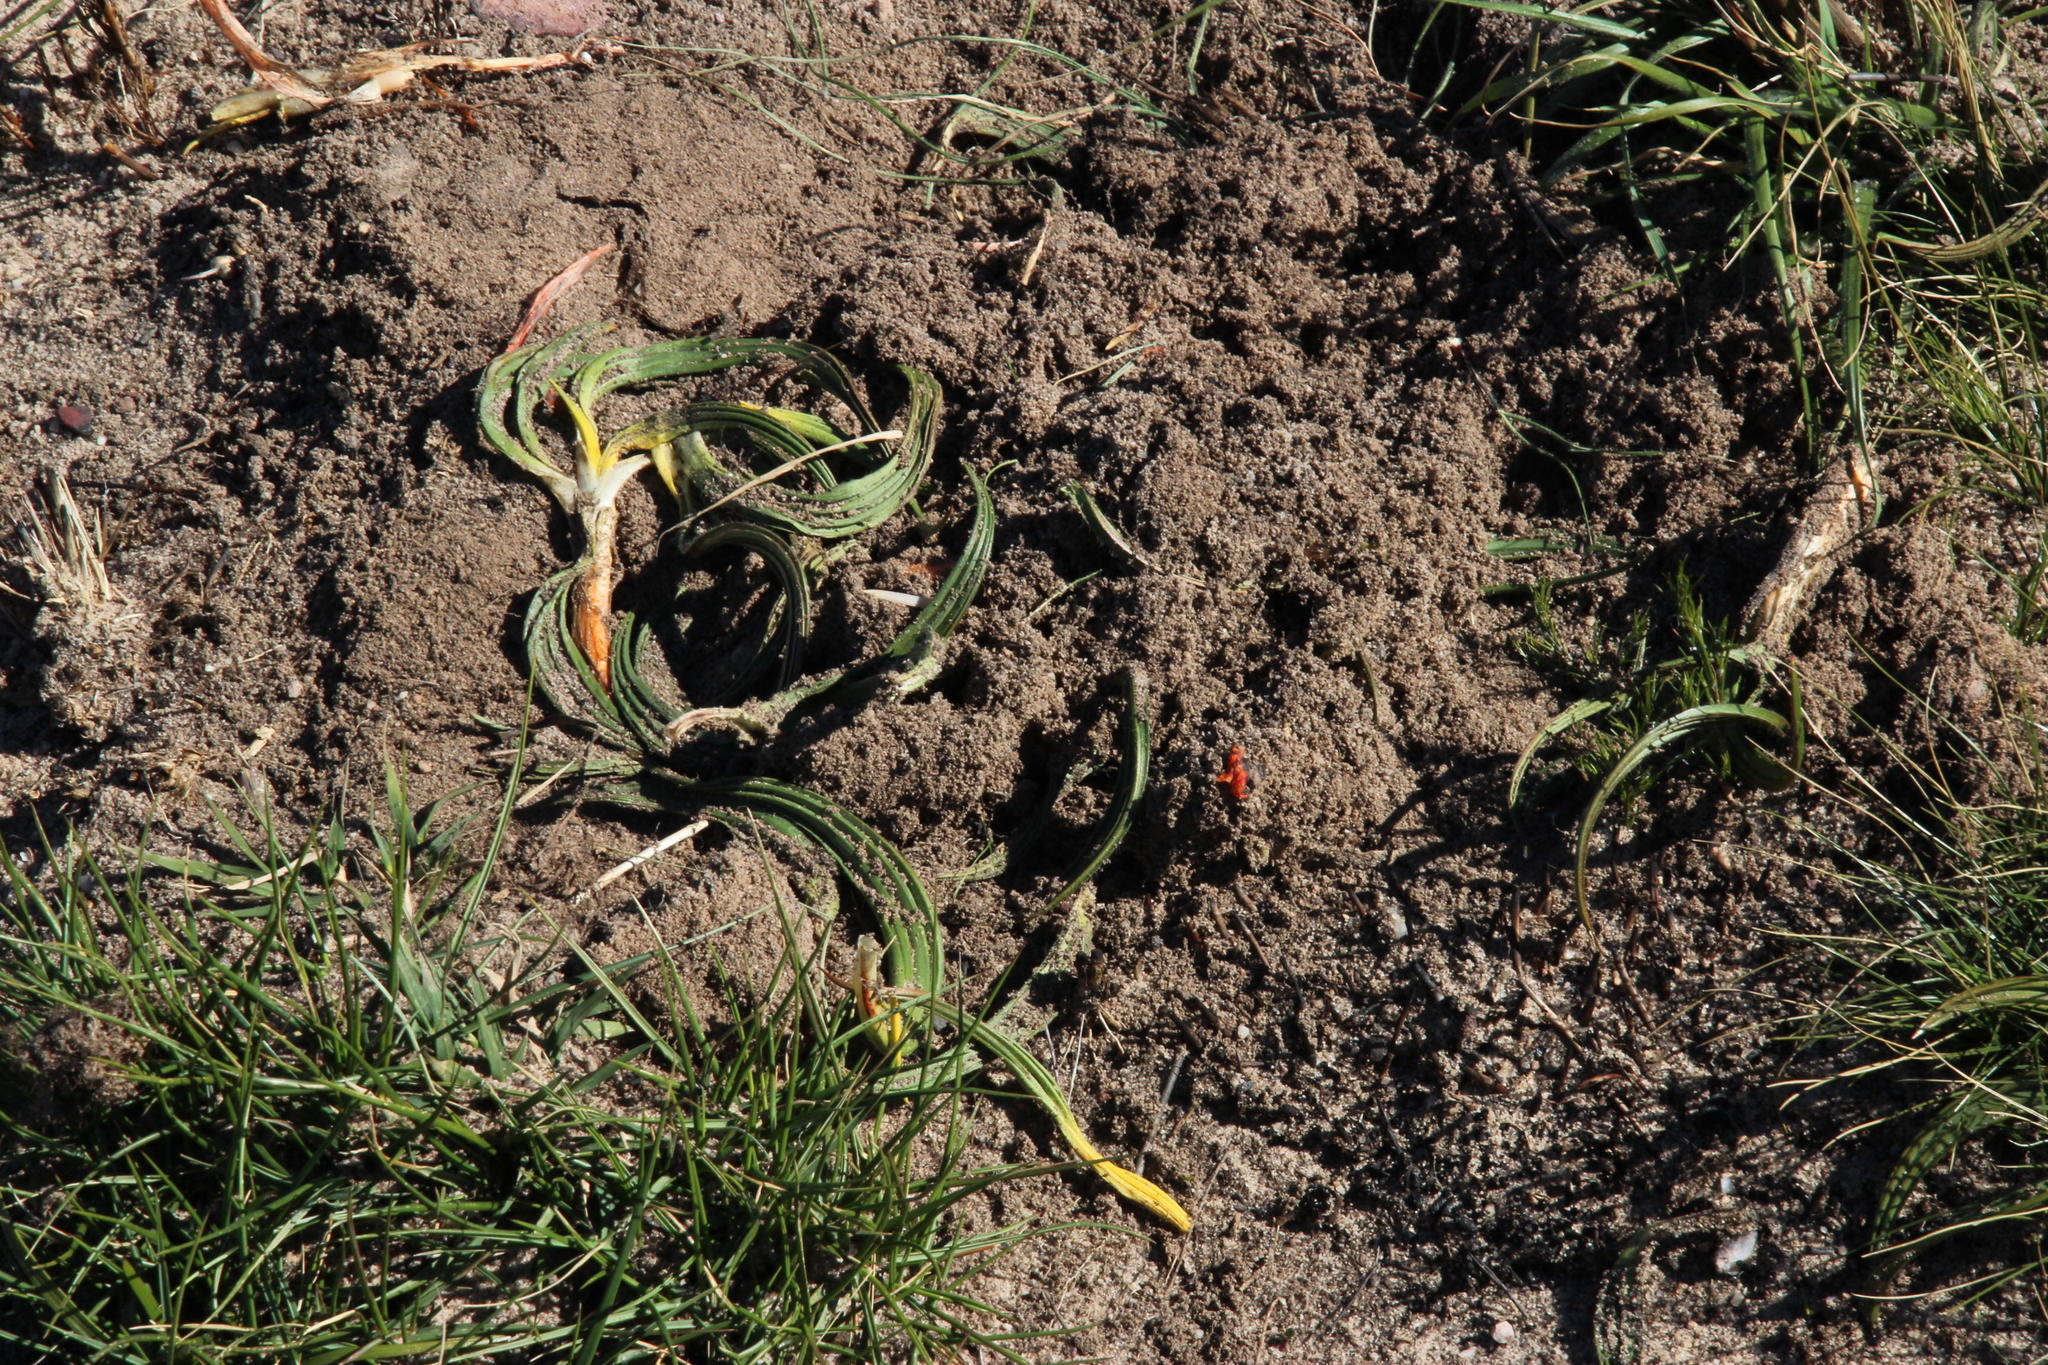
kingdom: Animalia
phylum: Chordata
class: Mammalia
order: Primates
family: Cercopithecidae
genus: Papio
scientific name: Papio ursinus
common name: Chacma baboon
